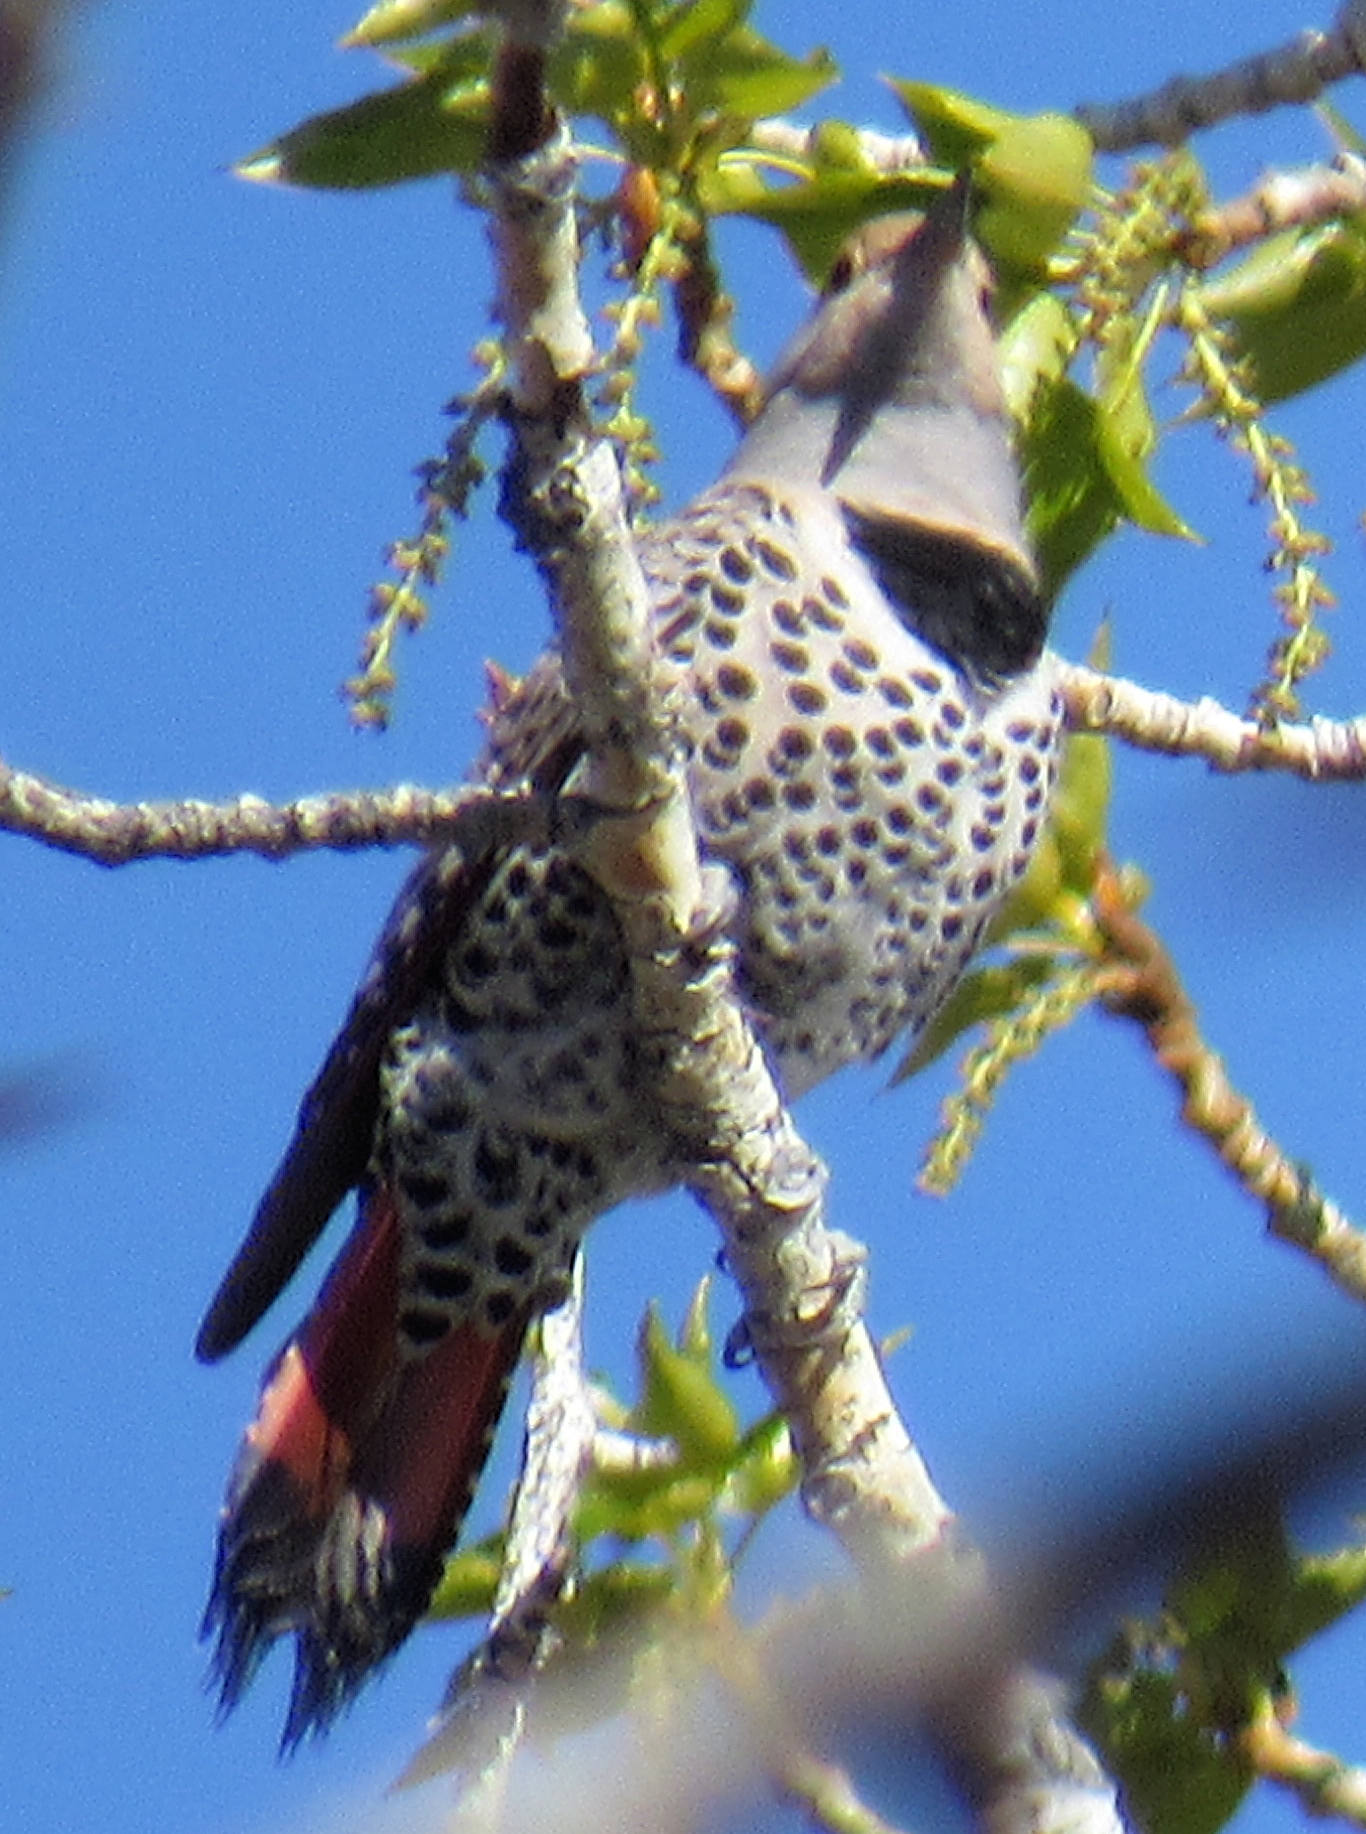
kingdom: Animalia
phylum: Chordata
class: Aves
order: Piciformes
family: Picidae
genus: Colaptes
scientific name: Colaptes auratus
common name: Northern flicker
